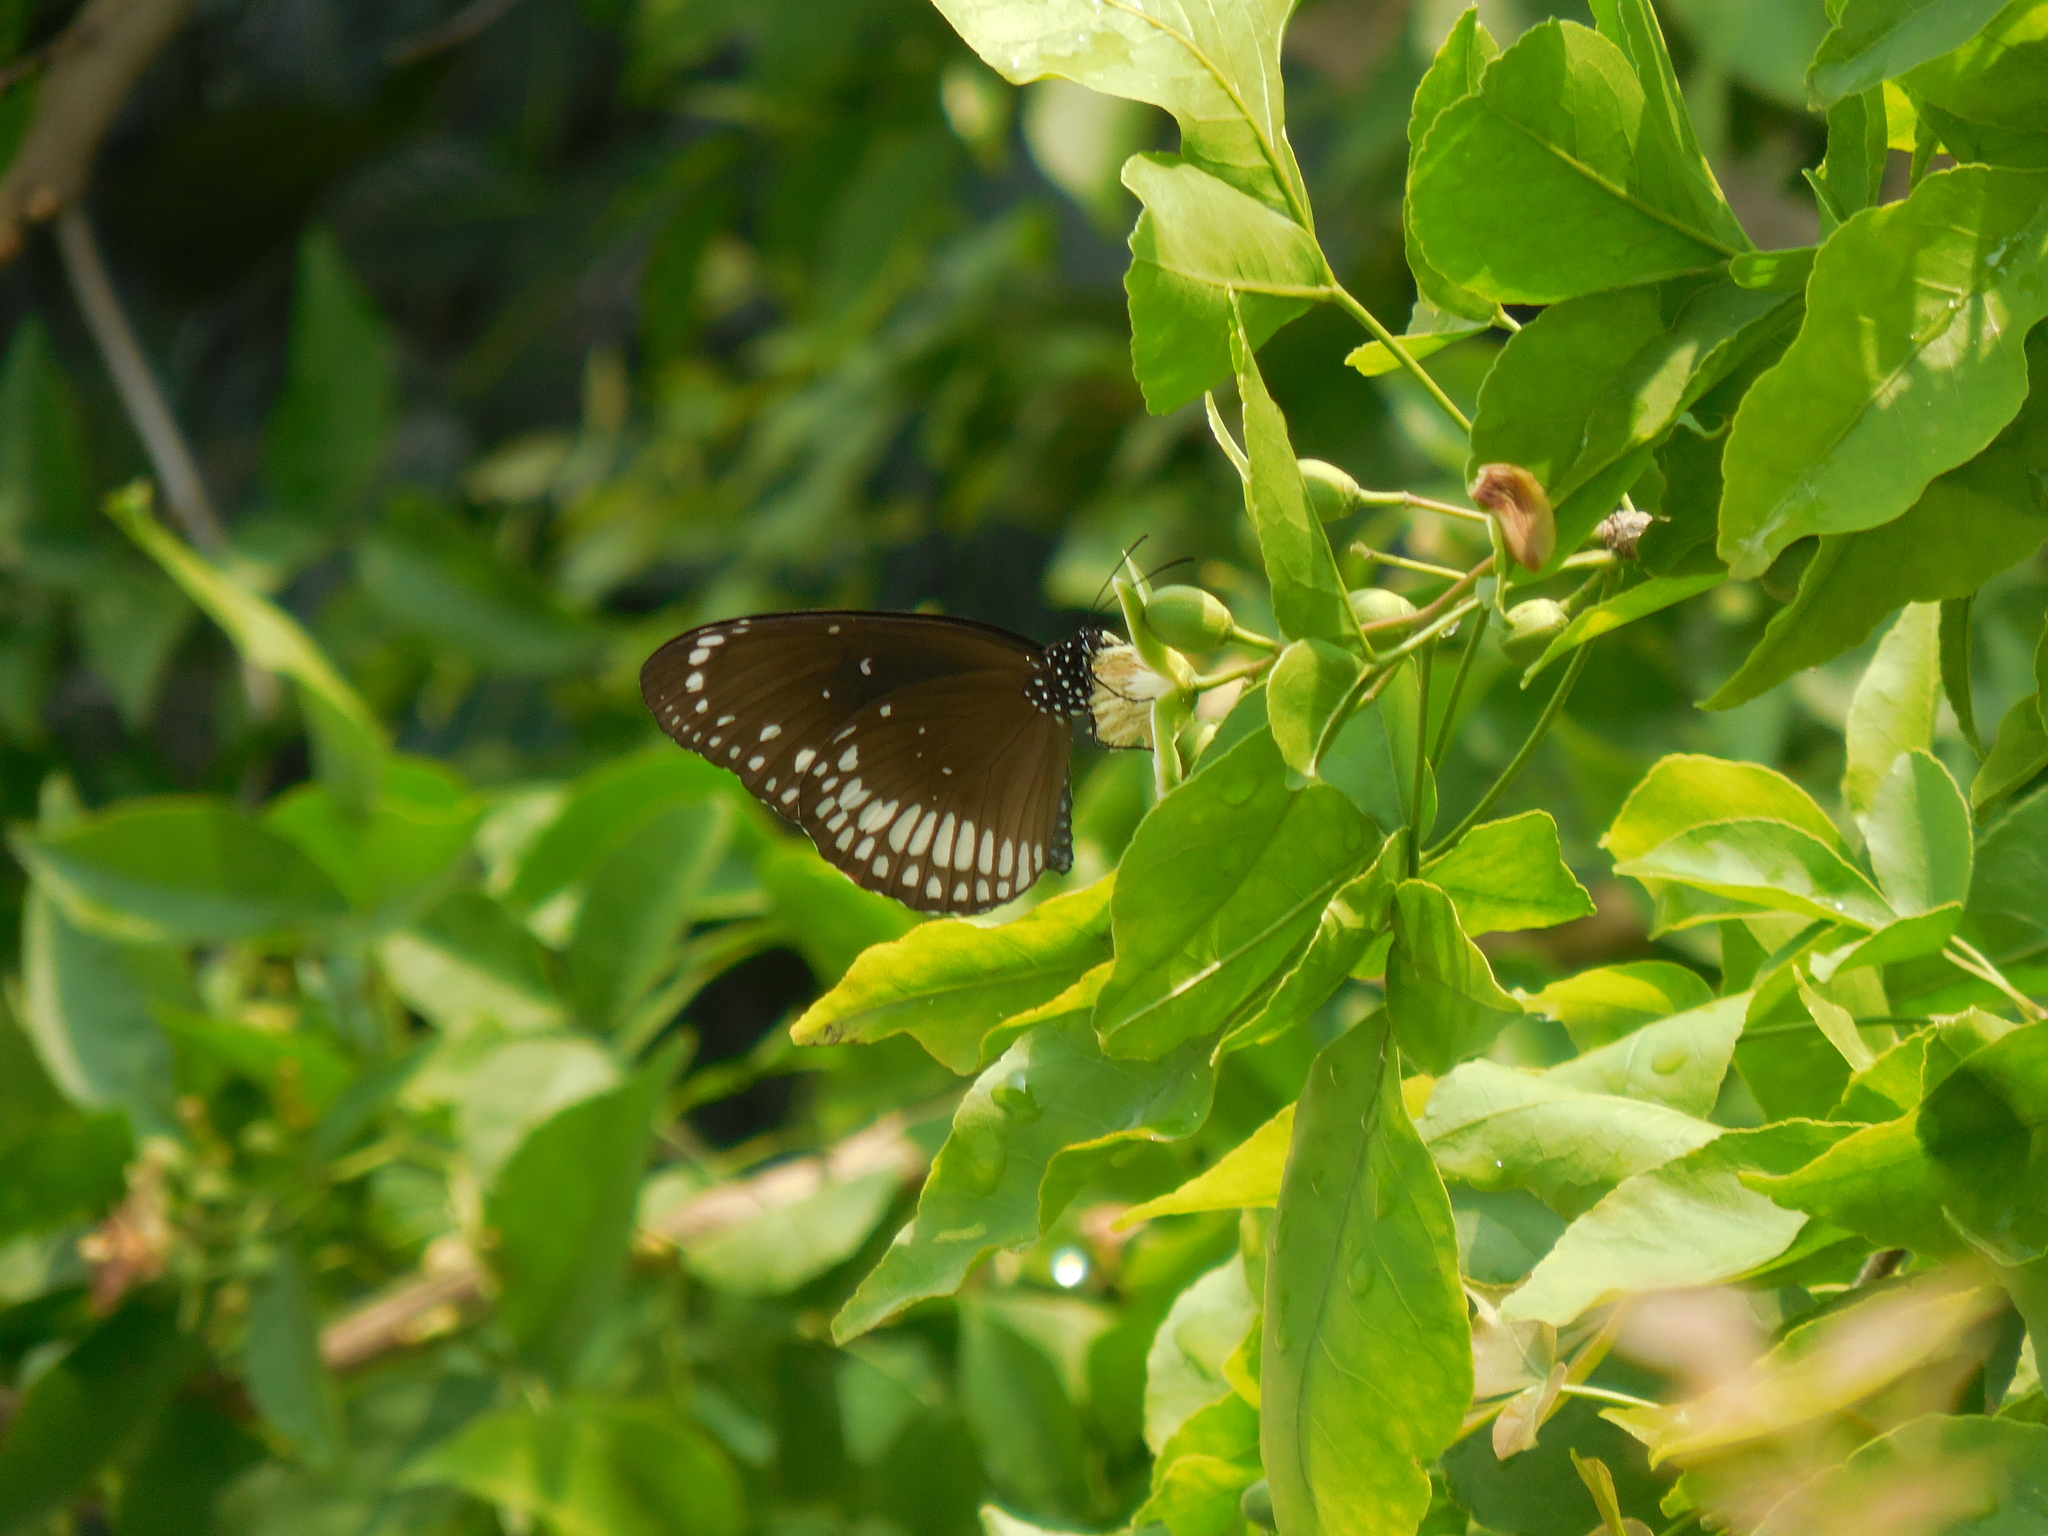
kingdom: Animalia
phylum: Arthropoda
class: Insecta
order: Lepidoptera
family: Nymphalidae
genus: Euploea
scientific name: Euploea core
